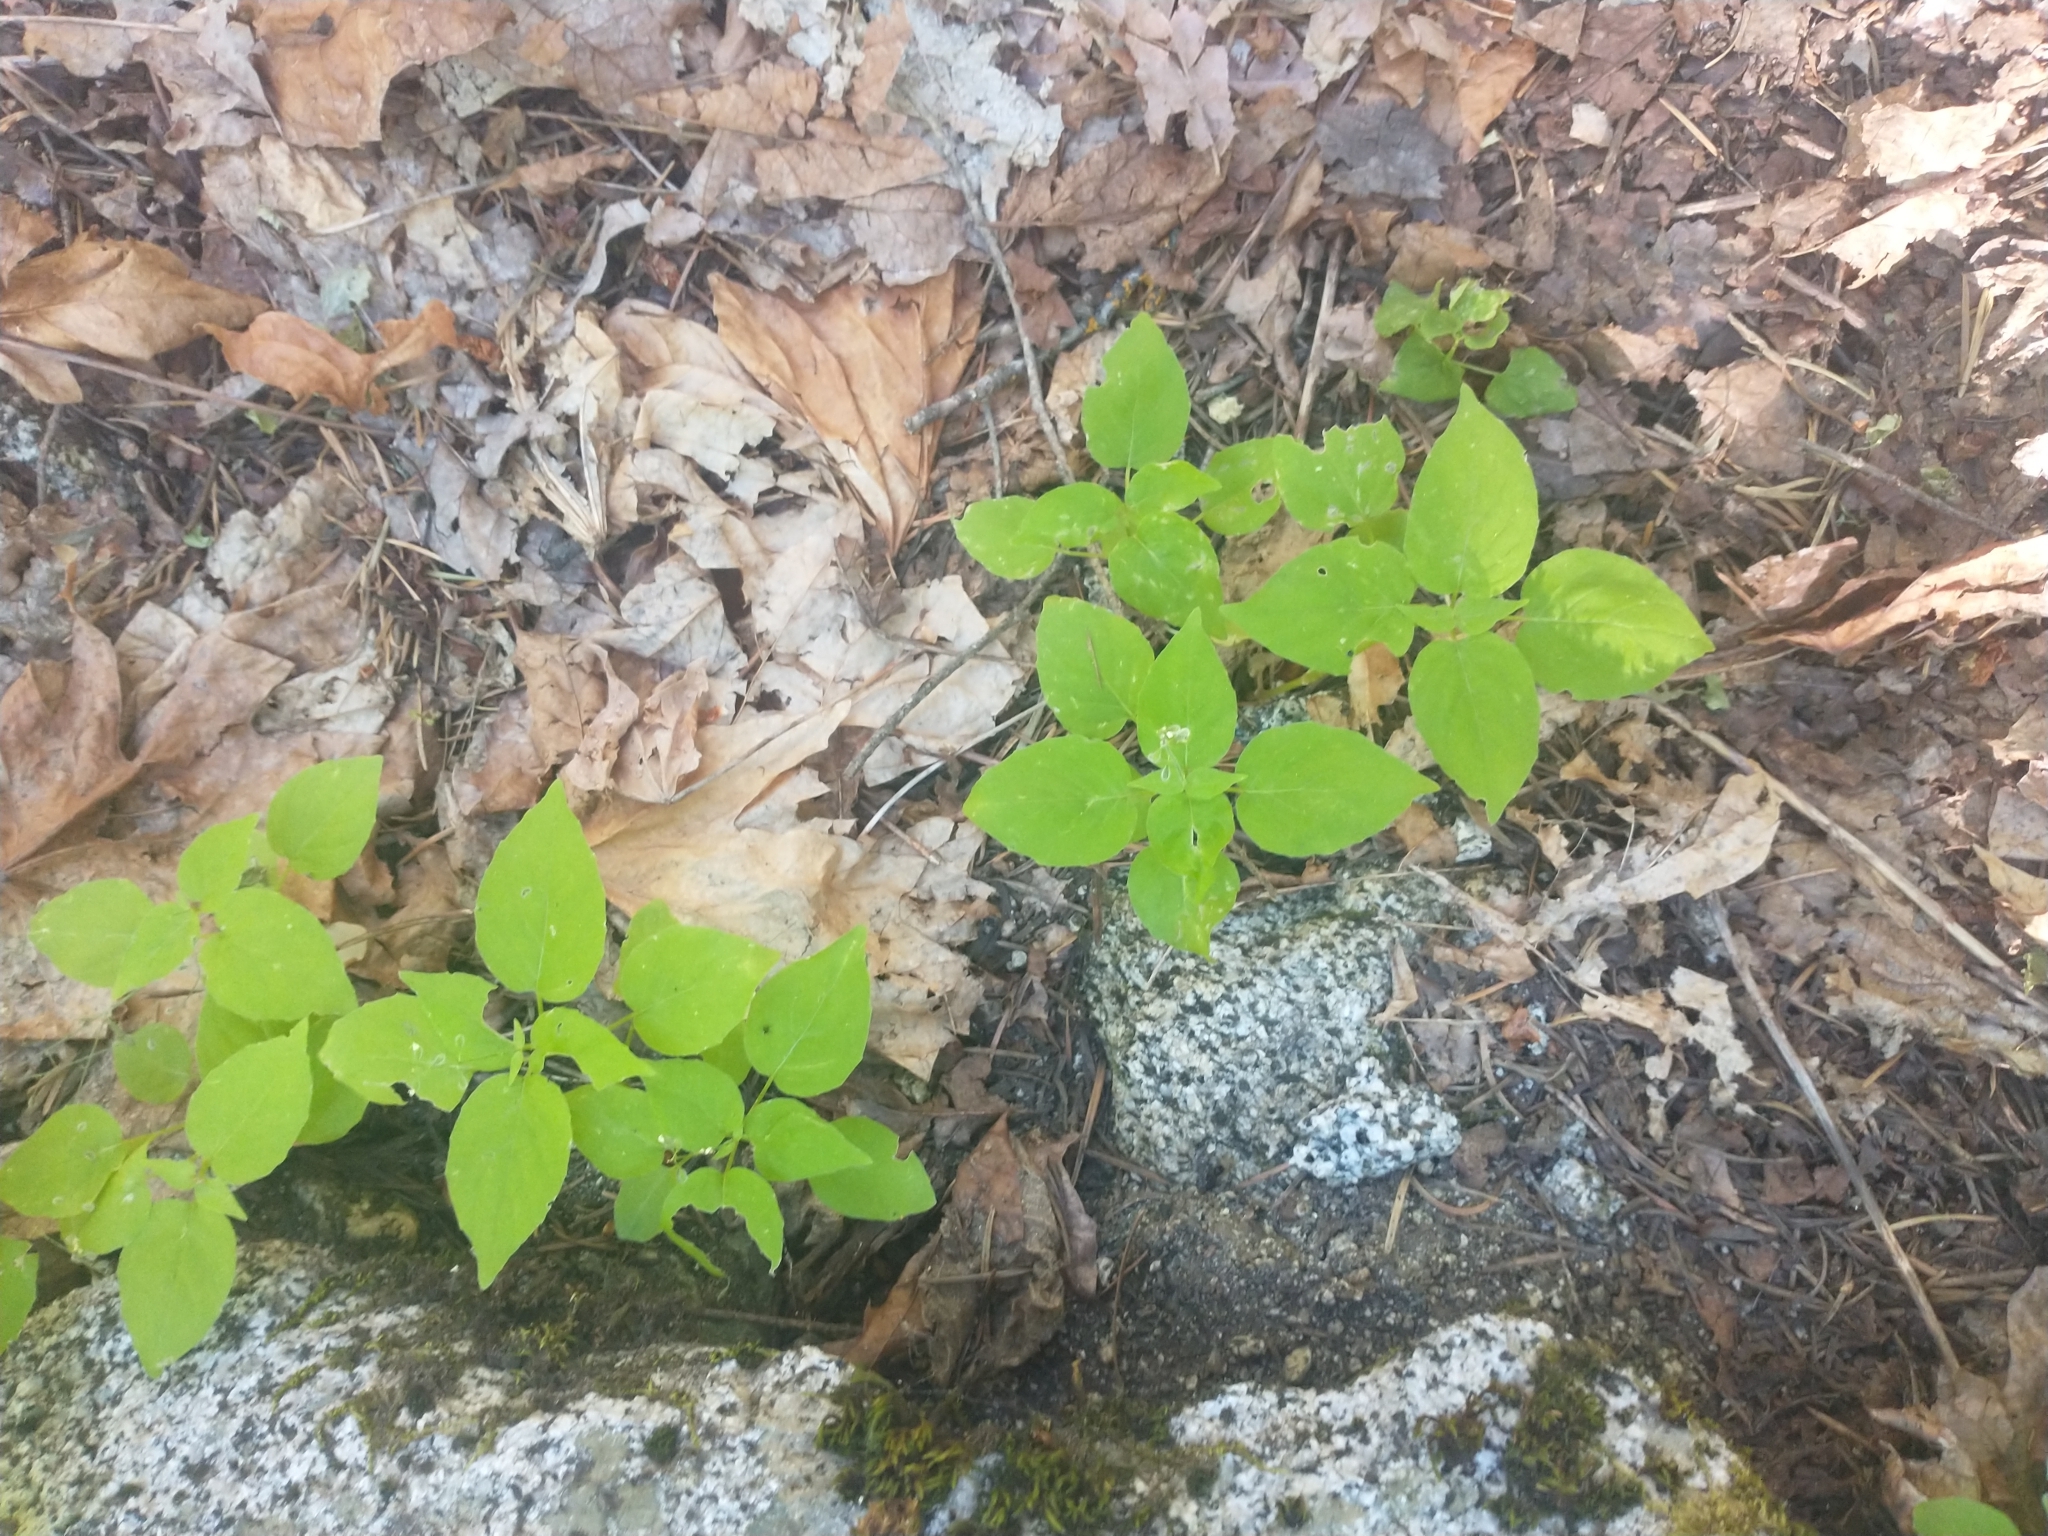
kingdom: Plantae
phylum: Tracheophyta
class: Magnoliopsida
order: Myrtales
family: Onagraceae
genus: Circaea
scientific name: Circaea alpina
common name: Alpine enchanter's-nightshade
